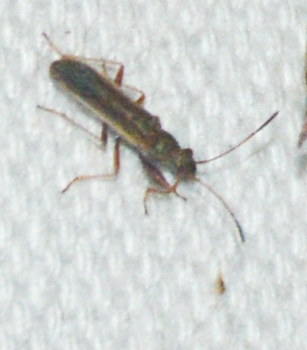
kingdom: Animalia
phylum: Arthropoda
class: Insecta
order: Hemiptera
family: Rhyparochromidae
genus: Paromius
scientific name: Paromius longulus
